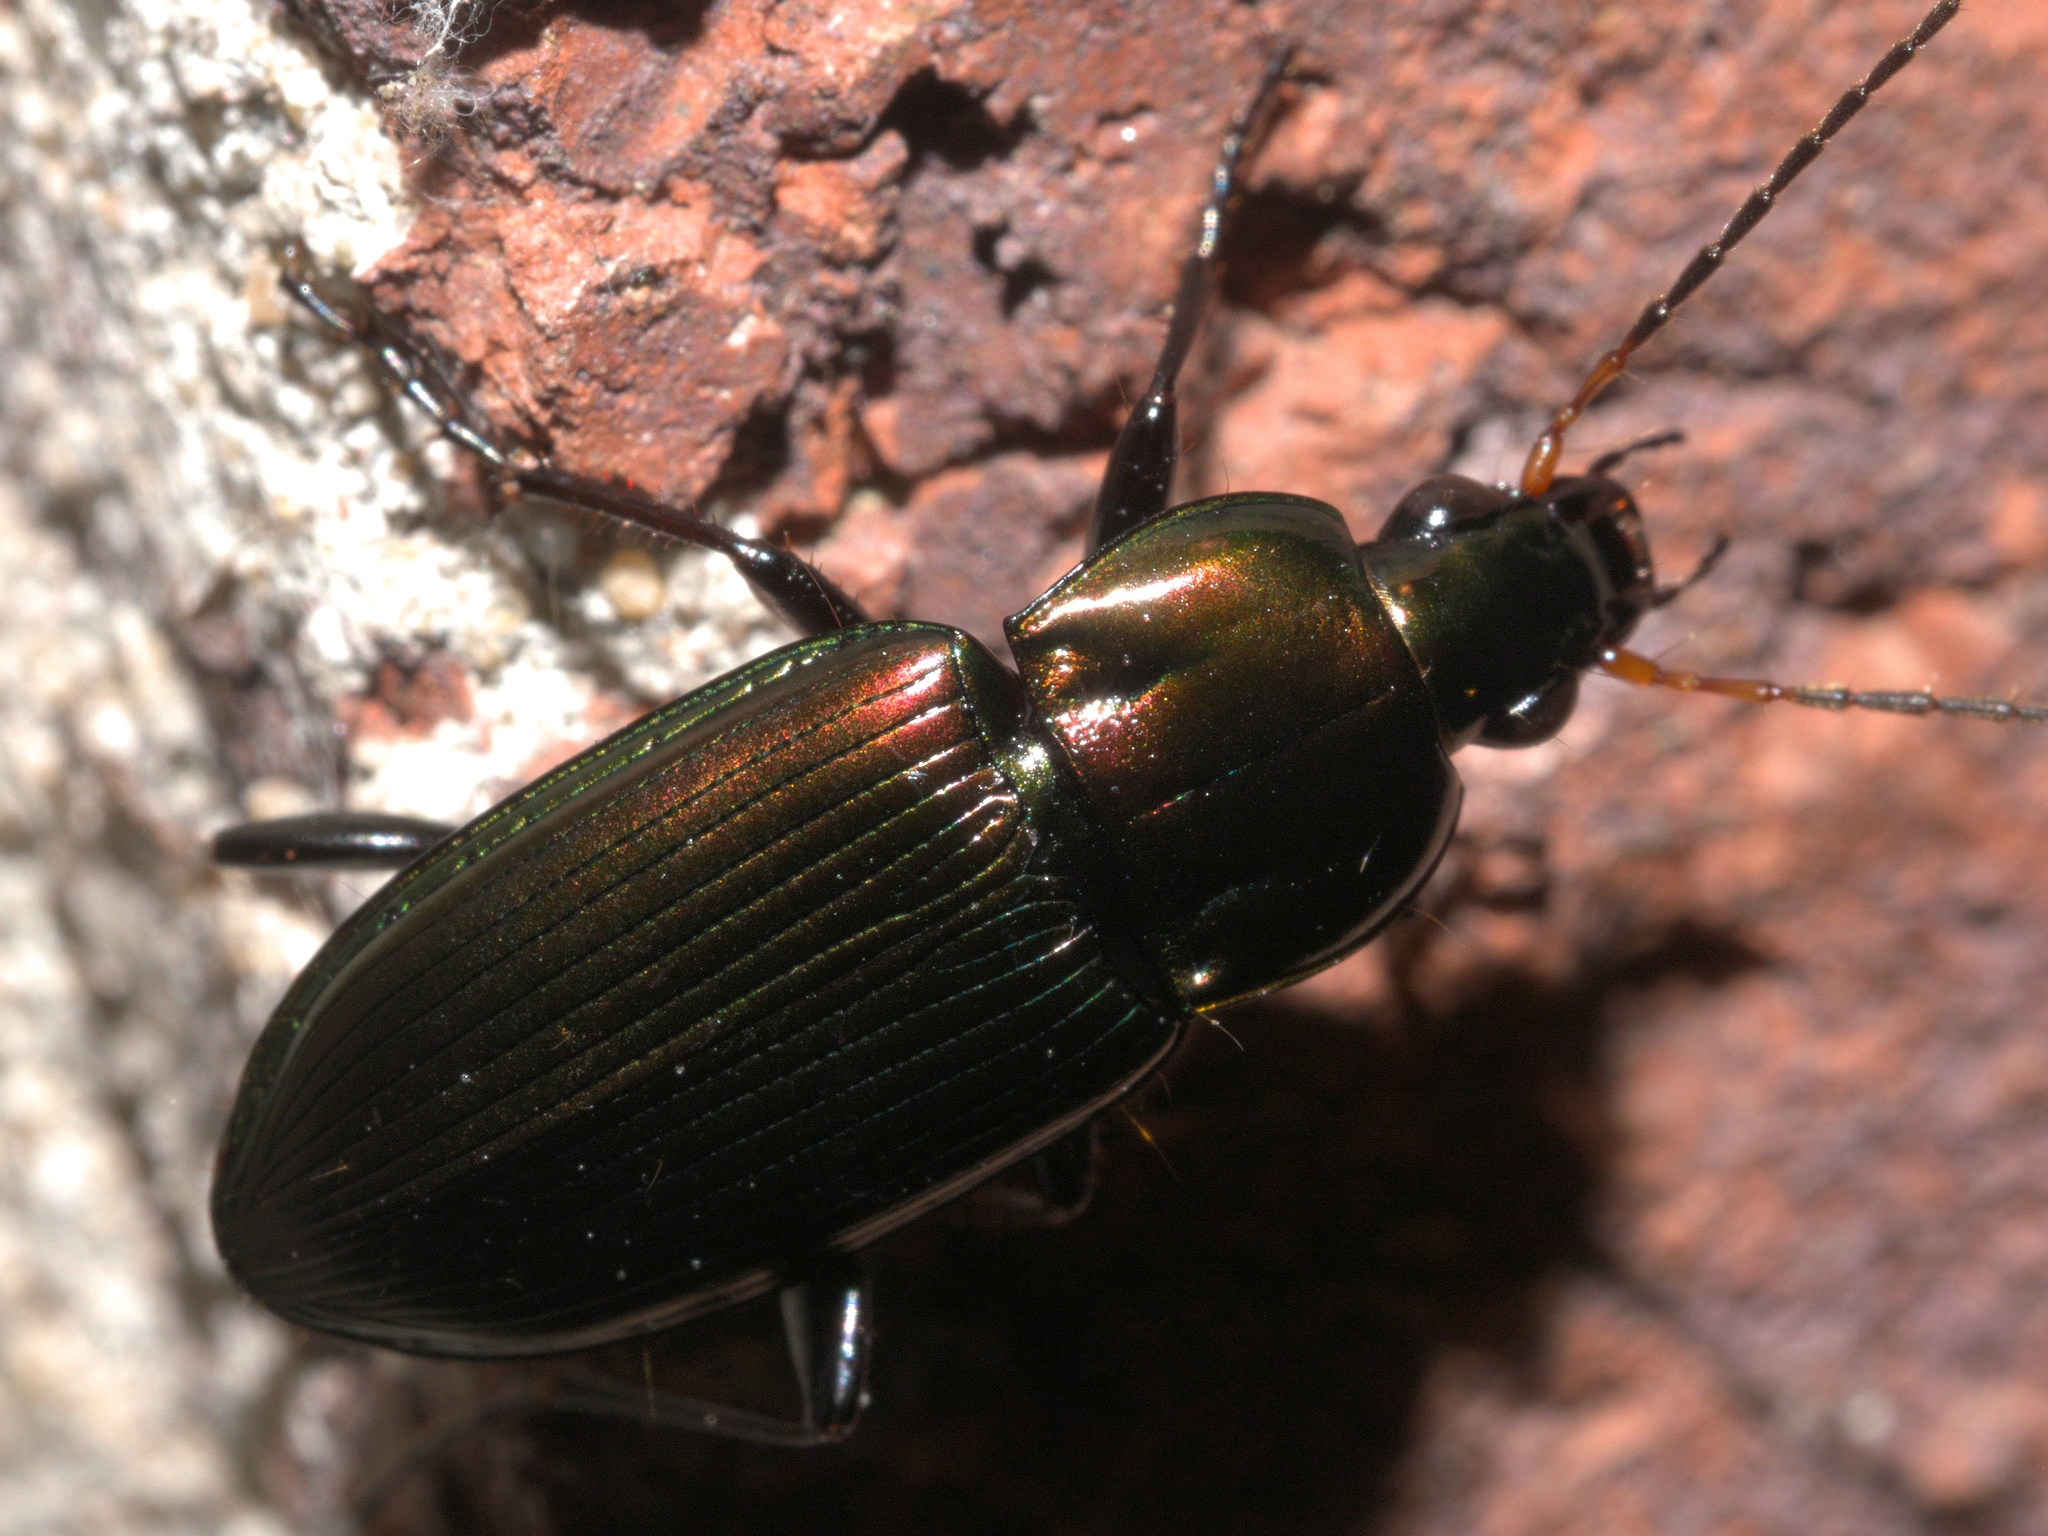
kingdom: Animalia
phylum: Arthropoda
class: Insecta
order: Coleoptera
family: Carabidae
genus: Poecilus
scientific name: Poecilus chalcites
